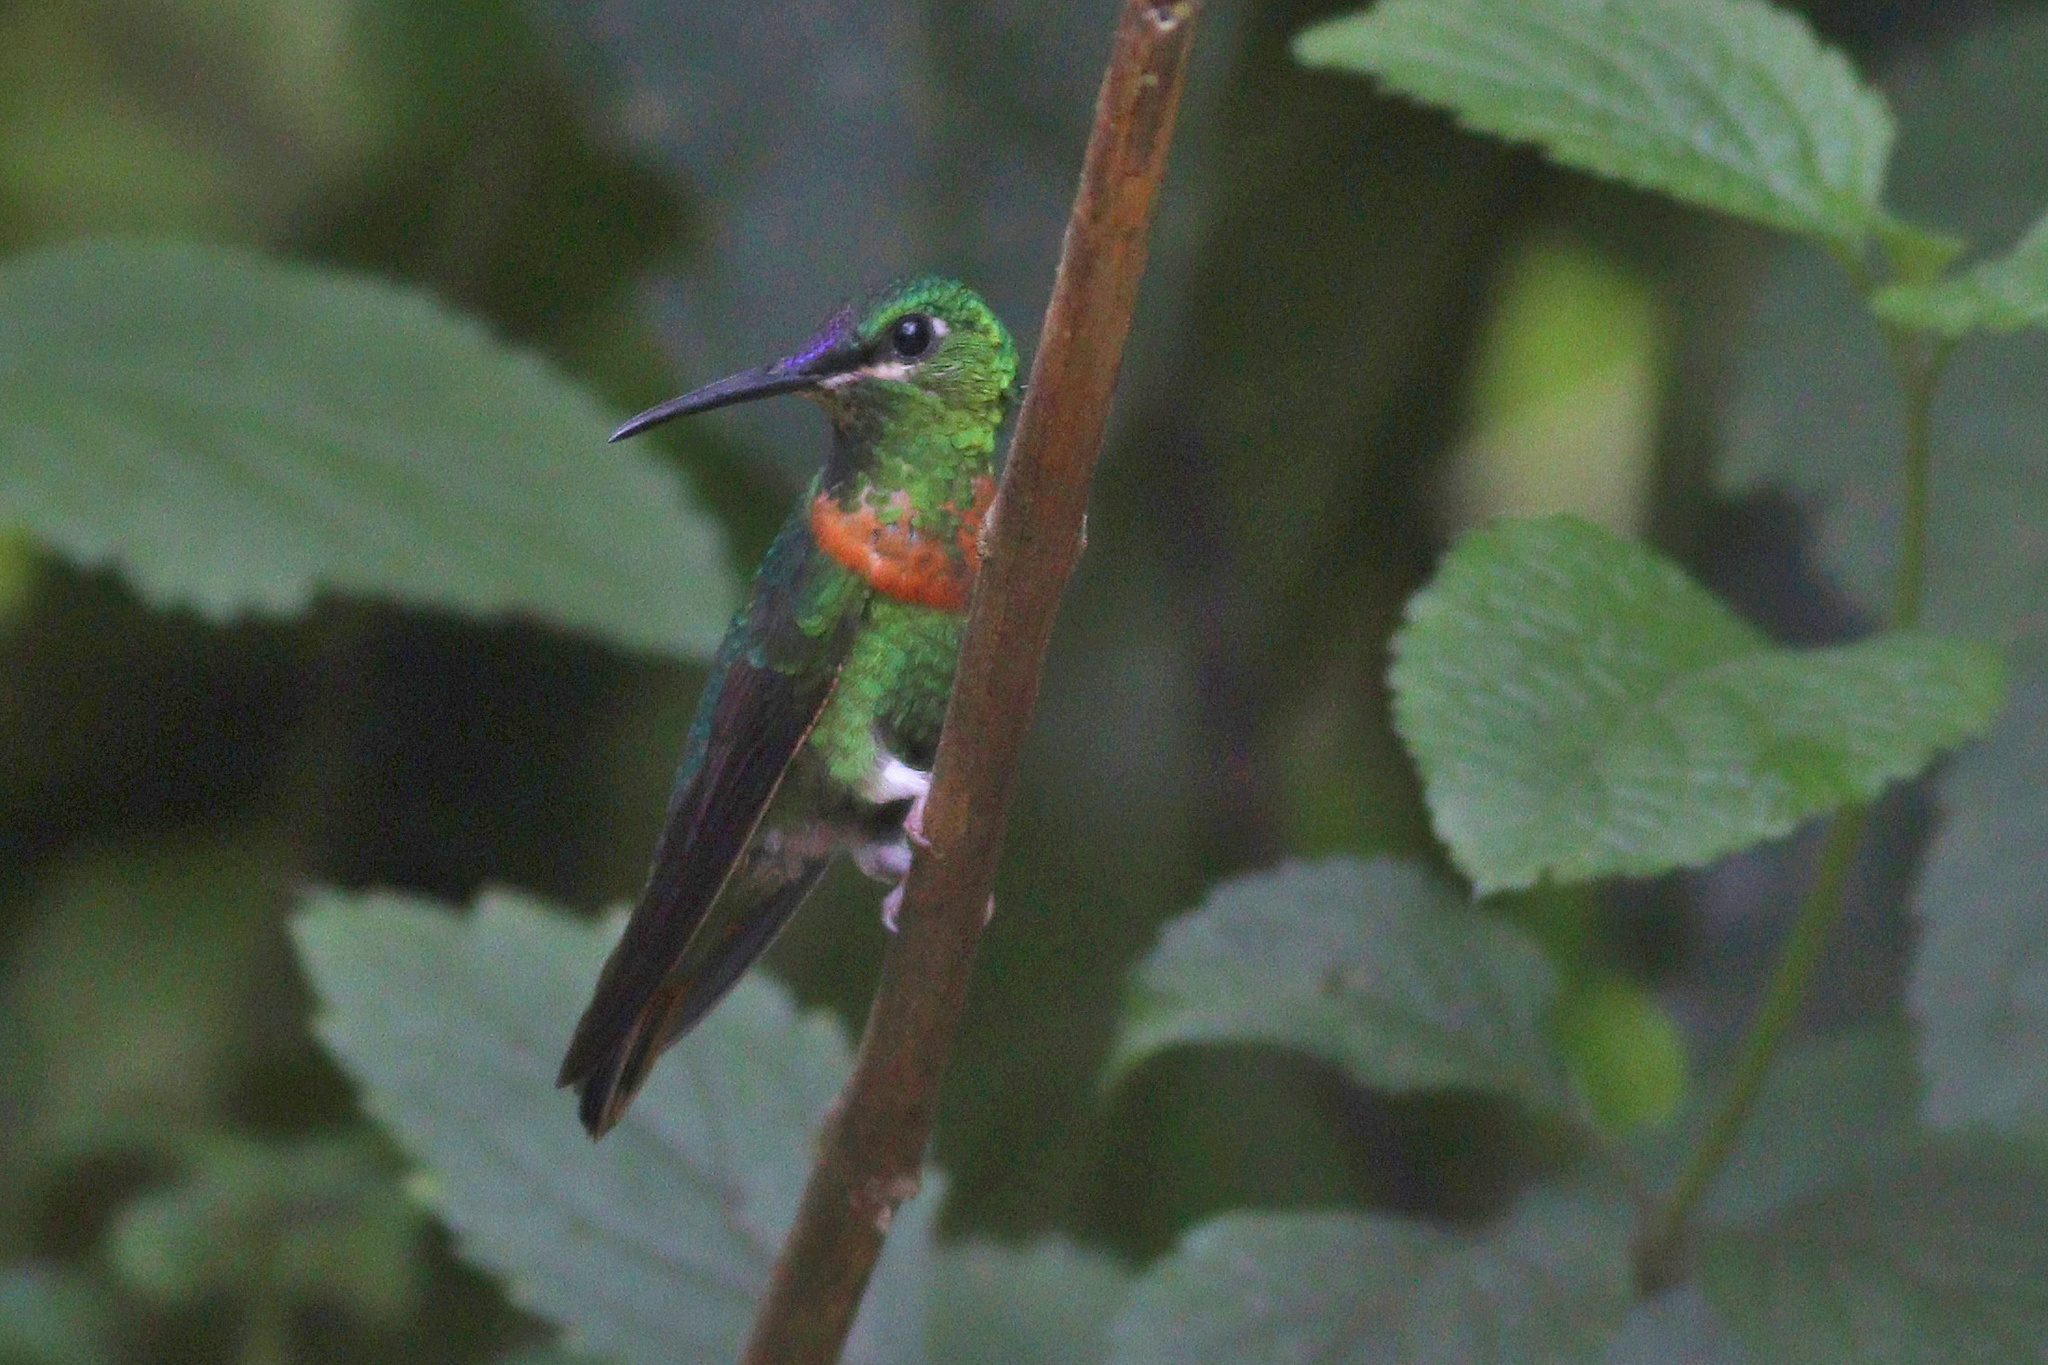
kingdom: Animalia
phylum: Chordata
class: Aves
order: Apodiformes
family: Trochilidae
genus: Heliodoxa
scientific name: Heliodoxa aurescens
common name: Gould's jewelfront
